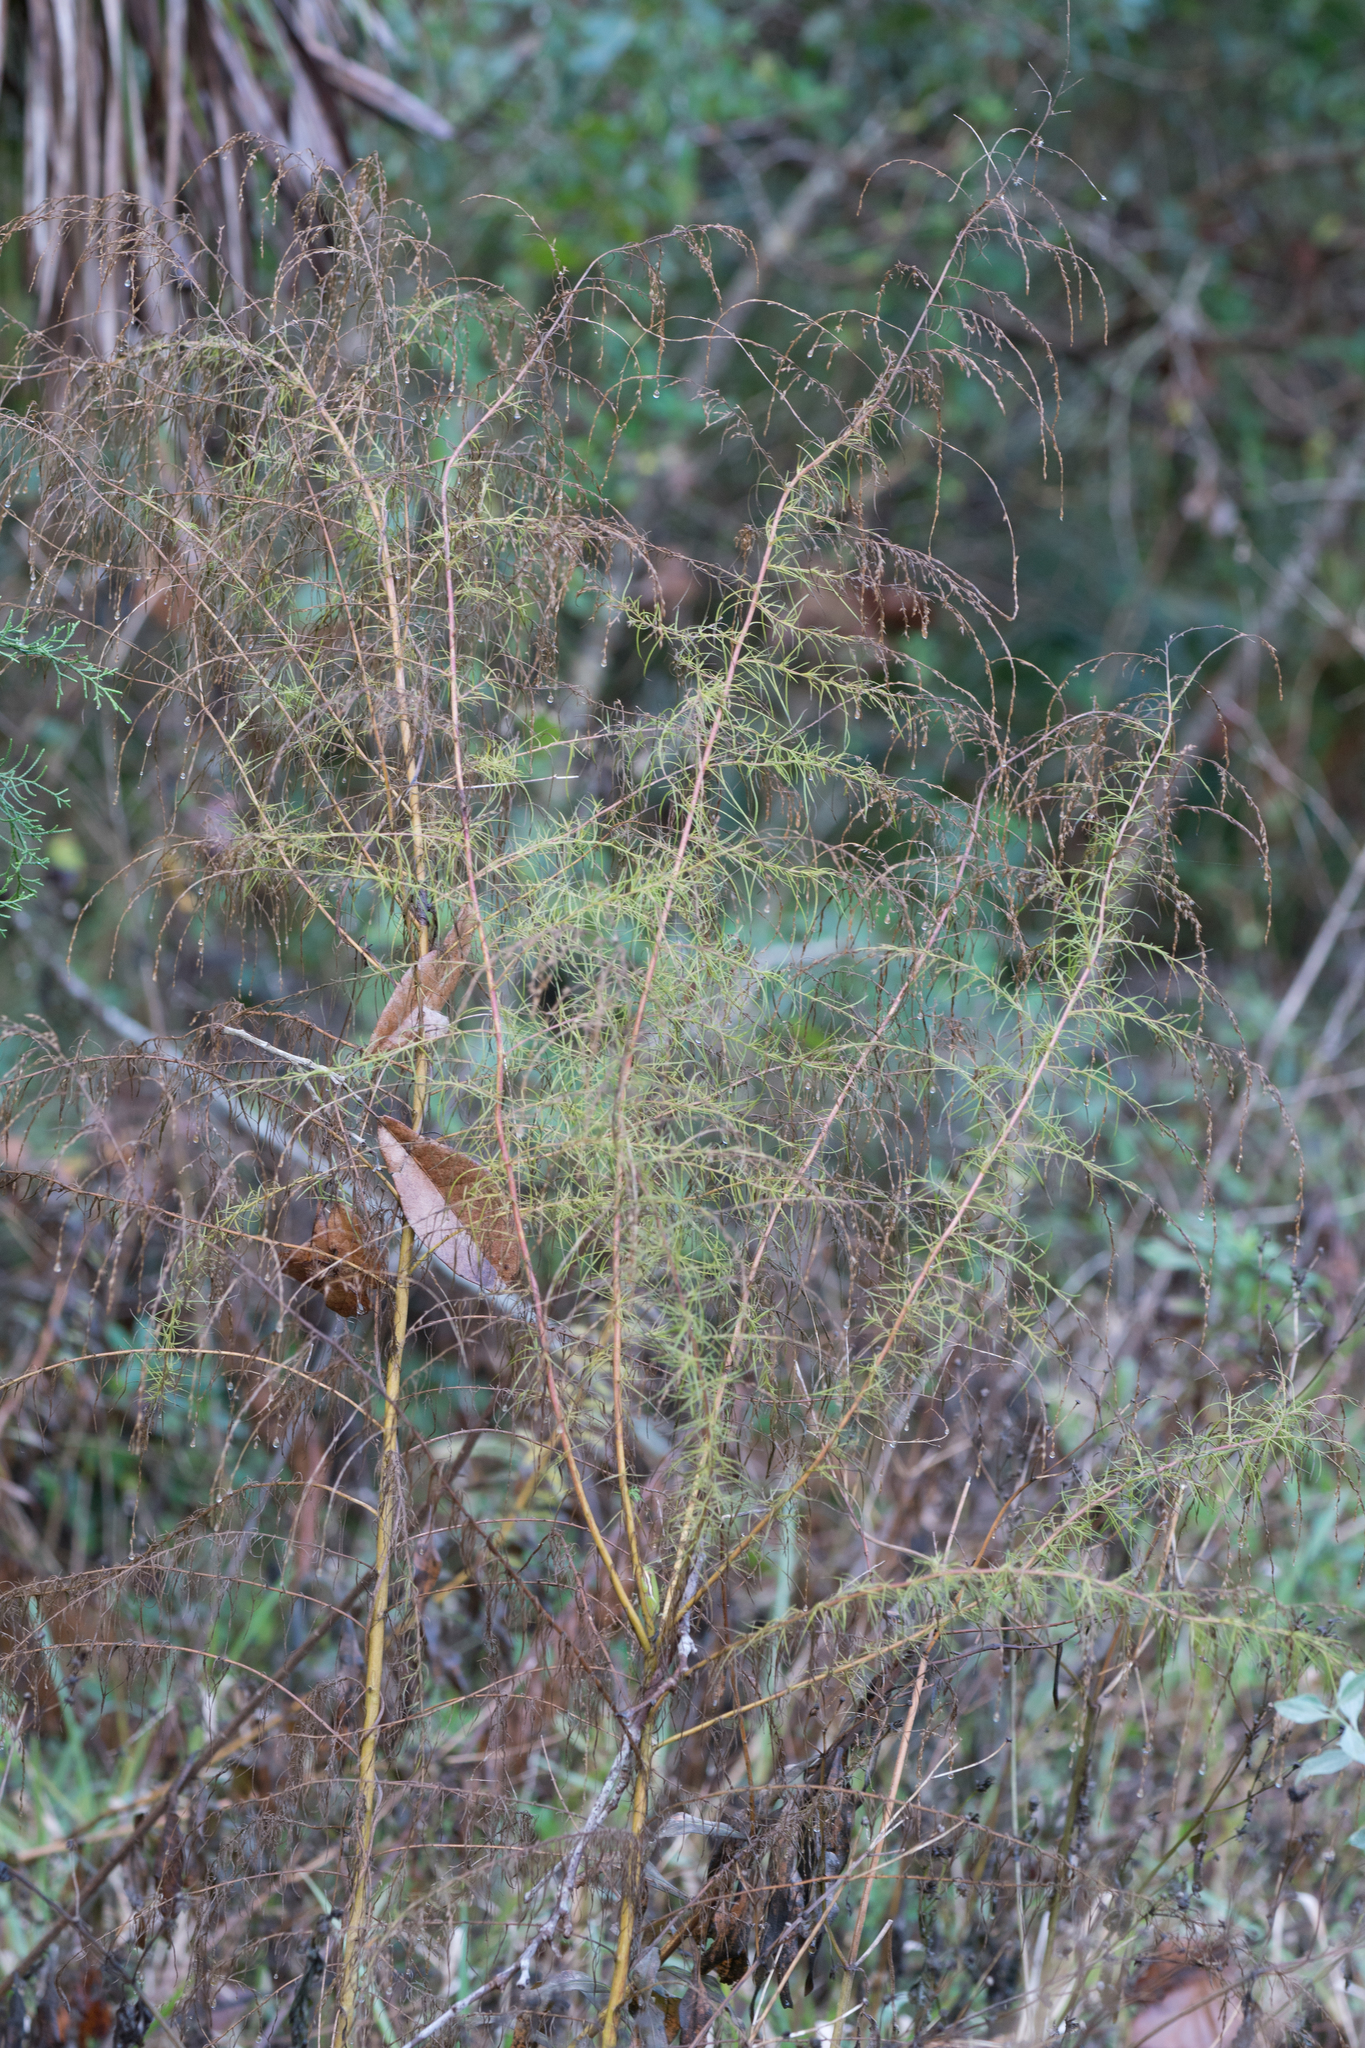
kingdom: Plantae
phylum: Tracheophyta
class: Magnoliopsida
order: Asterales
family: Asteraceae
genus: Eupatorium
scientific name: Eupatorium capillifolium
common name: Dog-fennel
